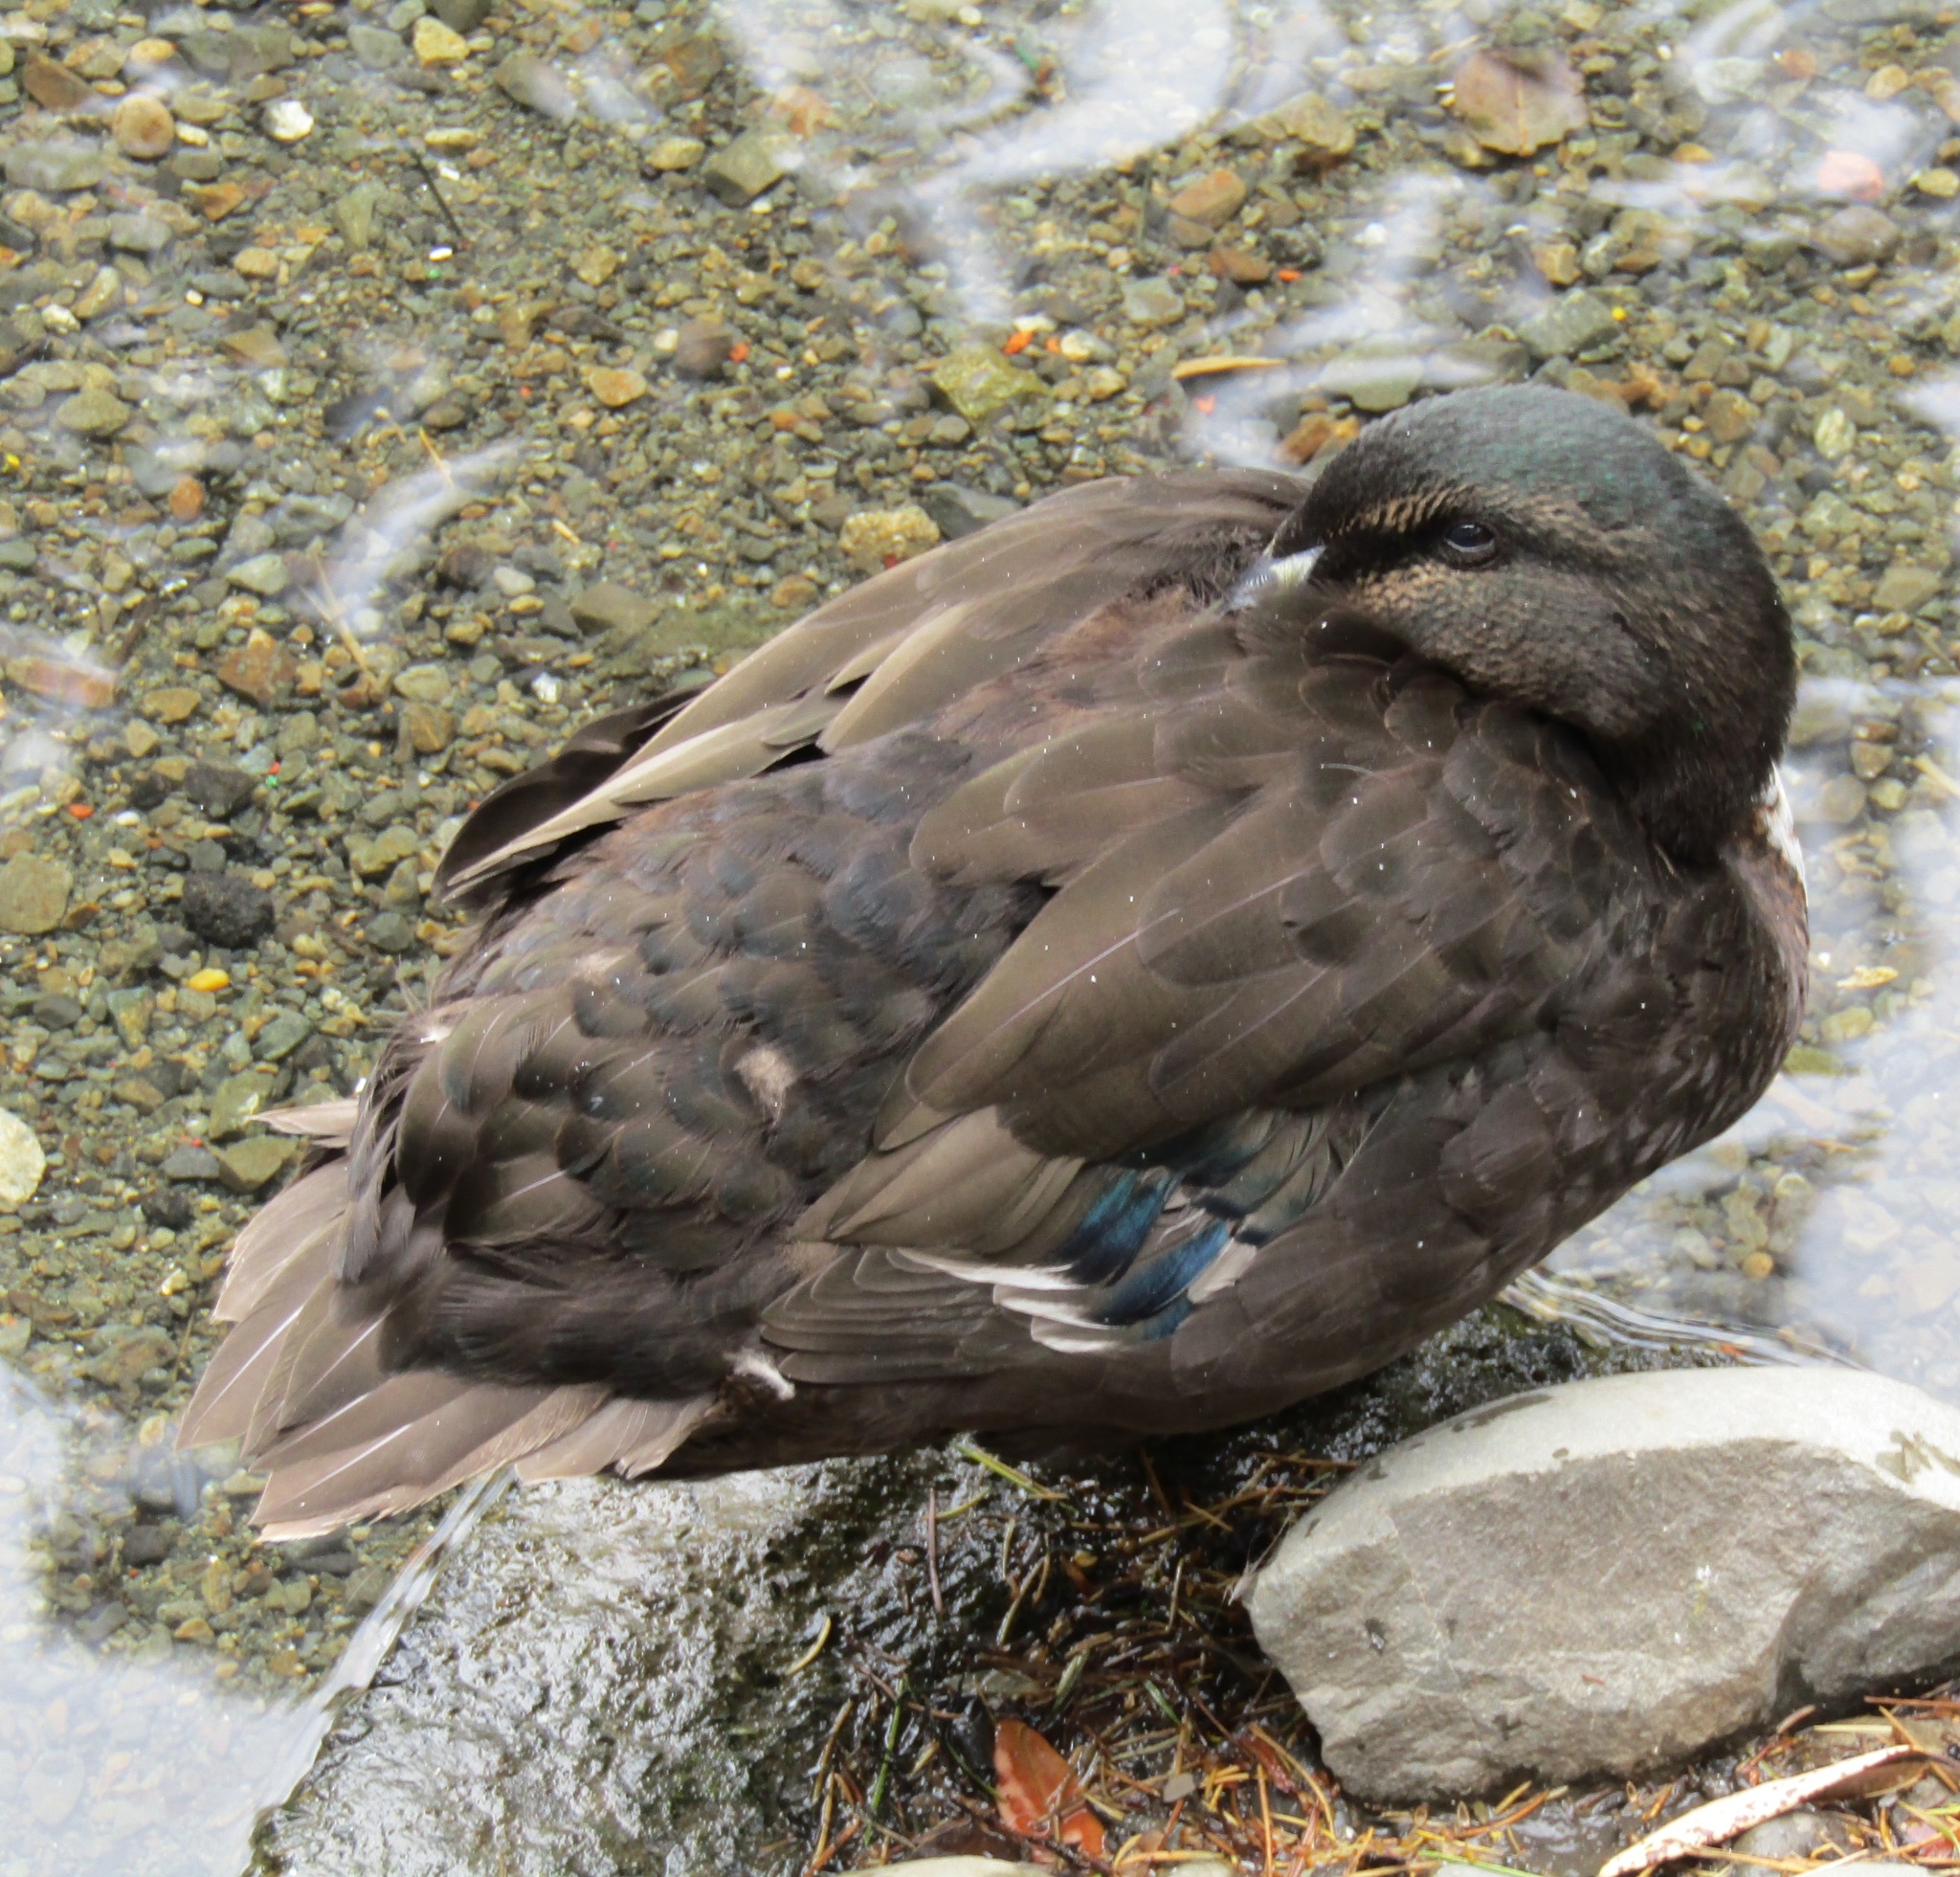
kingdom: Animalia
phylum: Chordata
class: Aves
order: Anseriformes
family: Anatidae
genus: Anas
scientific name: Anas platyrhynchos
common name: Mallard
